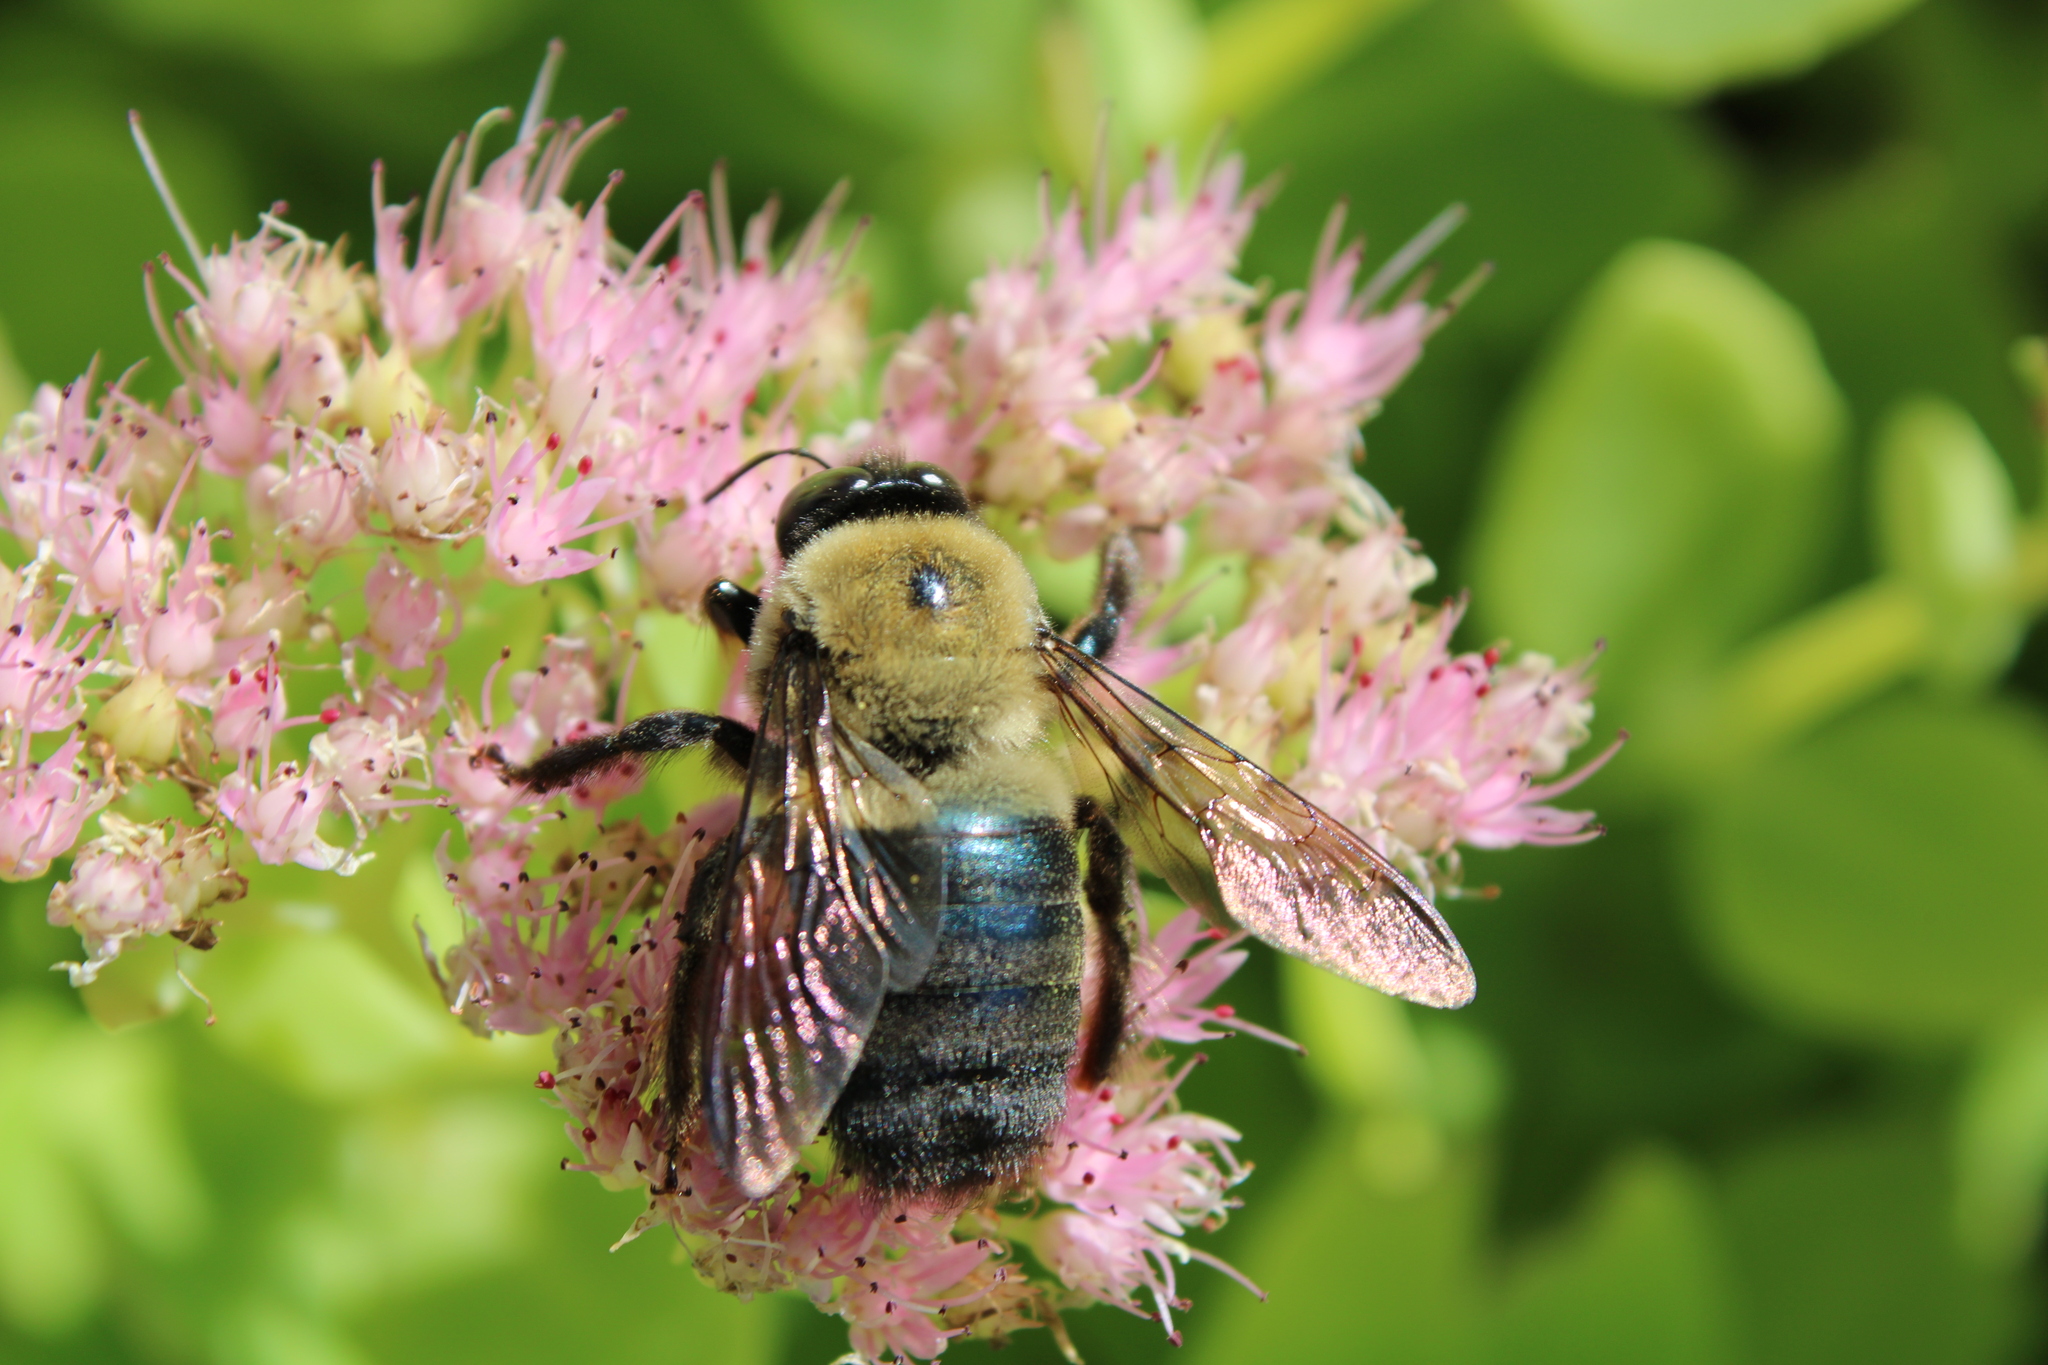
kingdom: Animalia
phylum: Arthropoda
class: Insecta
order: Hymenoptera
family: Apidae
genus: Xylocopa
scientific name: Xylocopa virginica
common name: Carpenter bee
